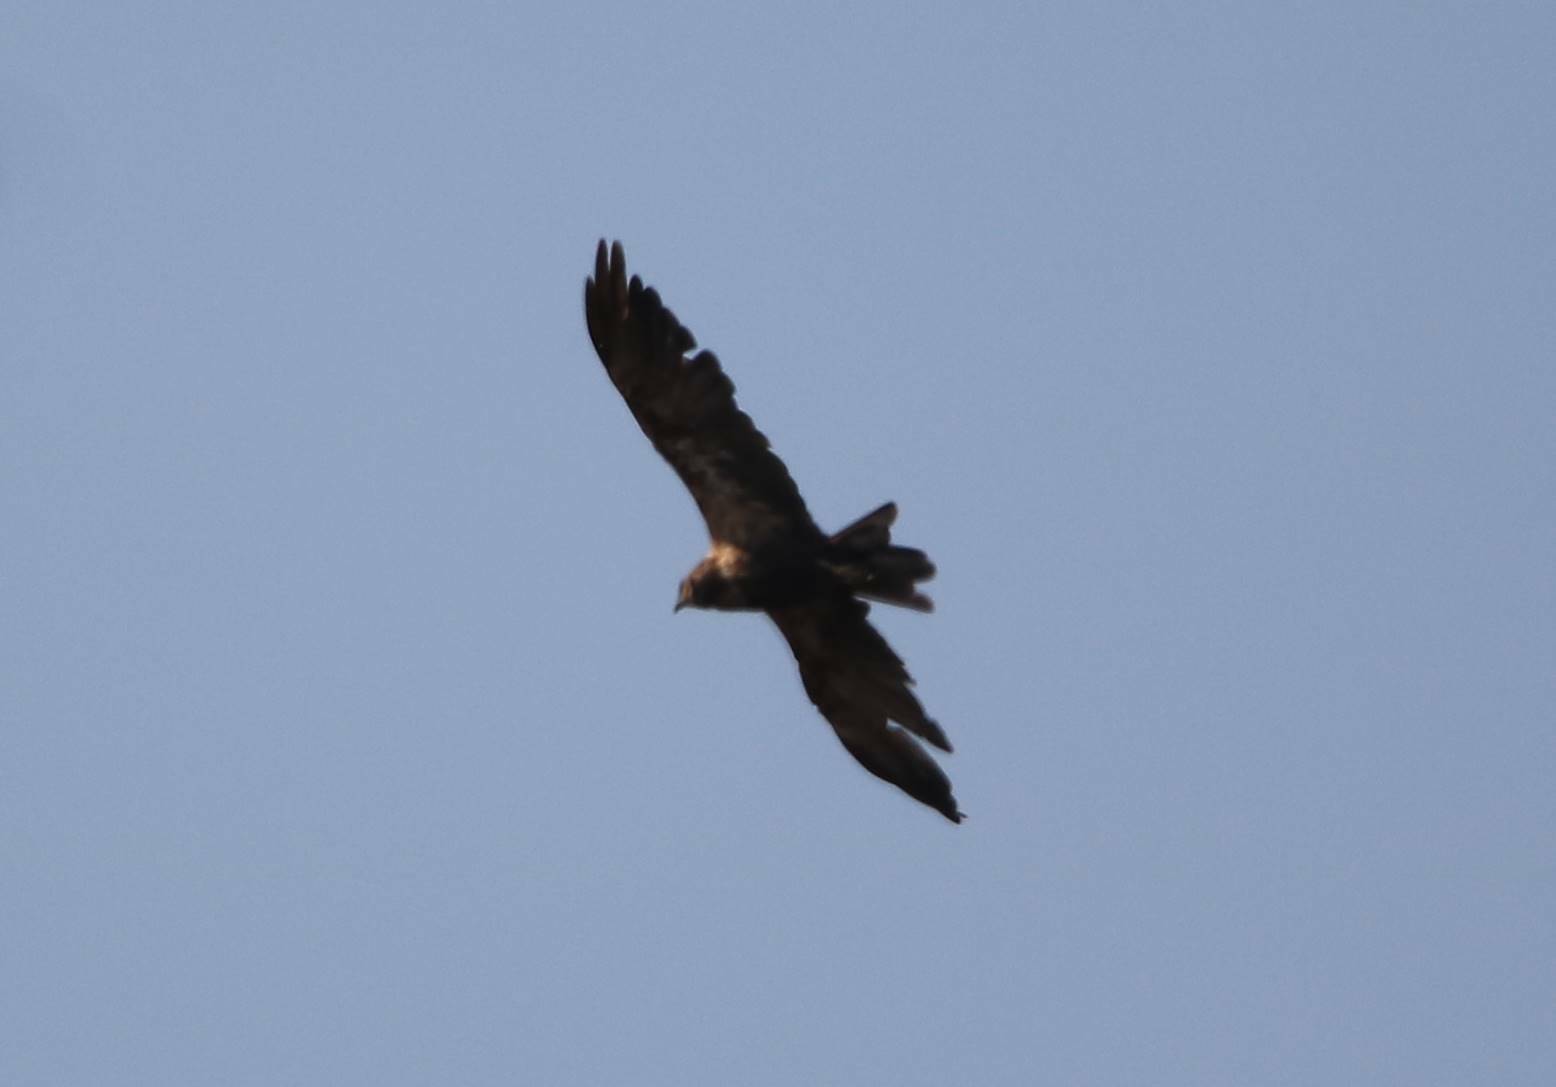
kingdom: Animalia
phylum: Chordata
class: Aves
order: Accipitriformes
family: Accipitridae
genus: Circus
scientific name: Circus aeruginosus
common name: Western marsh harrier
